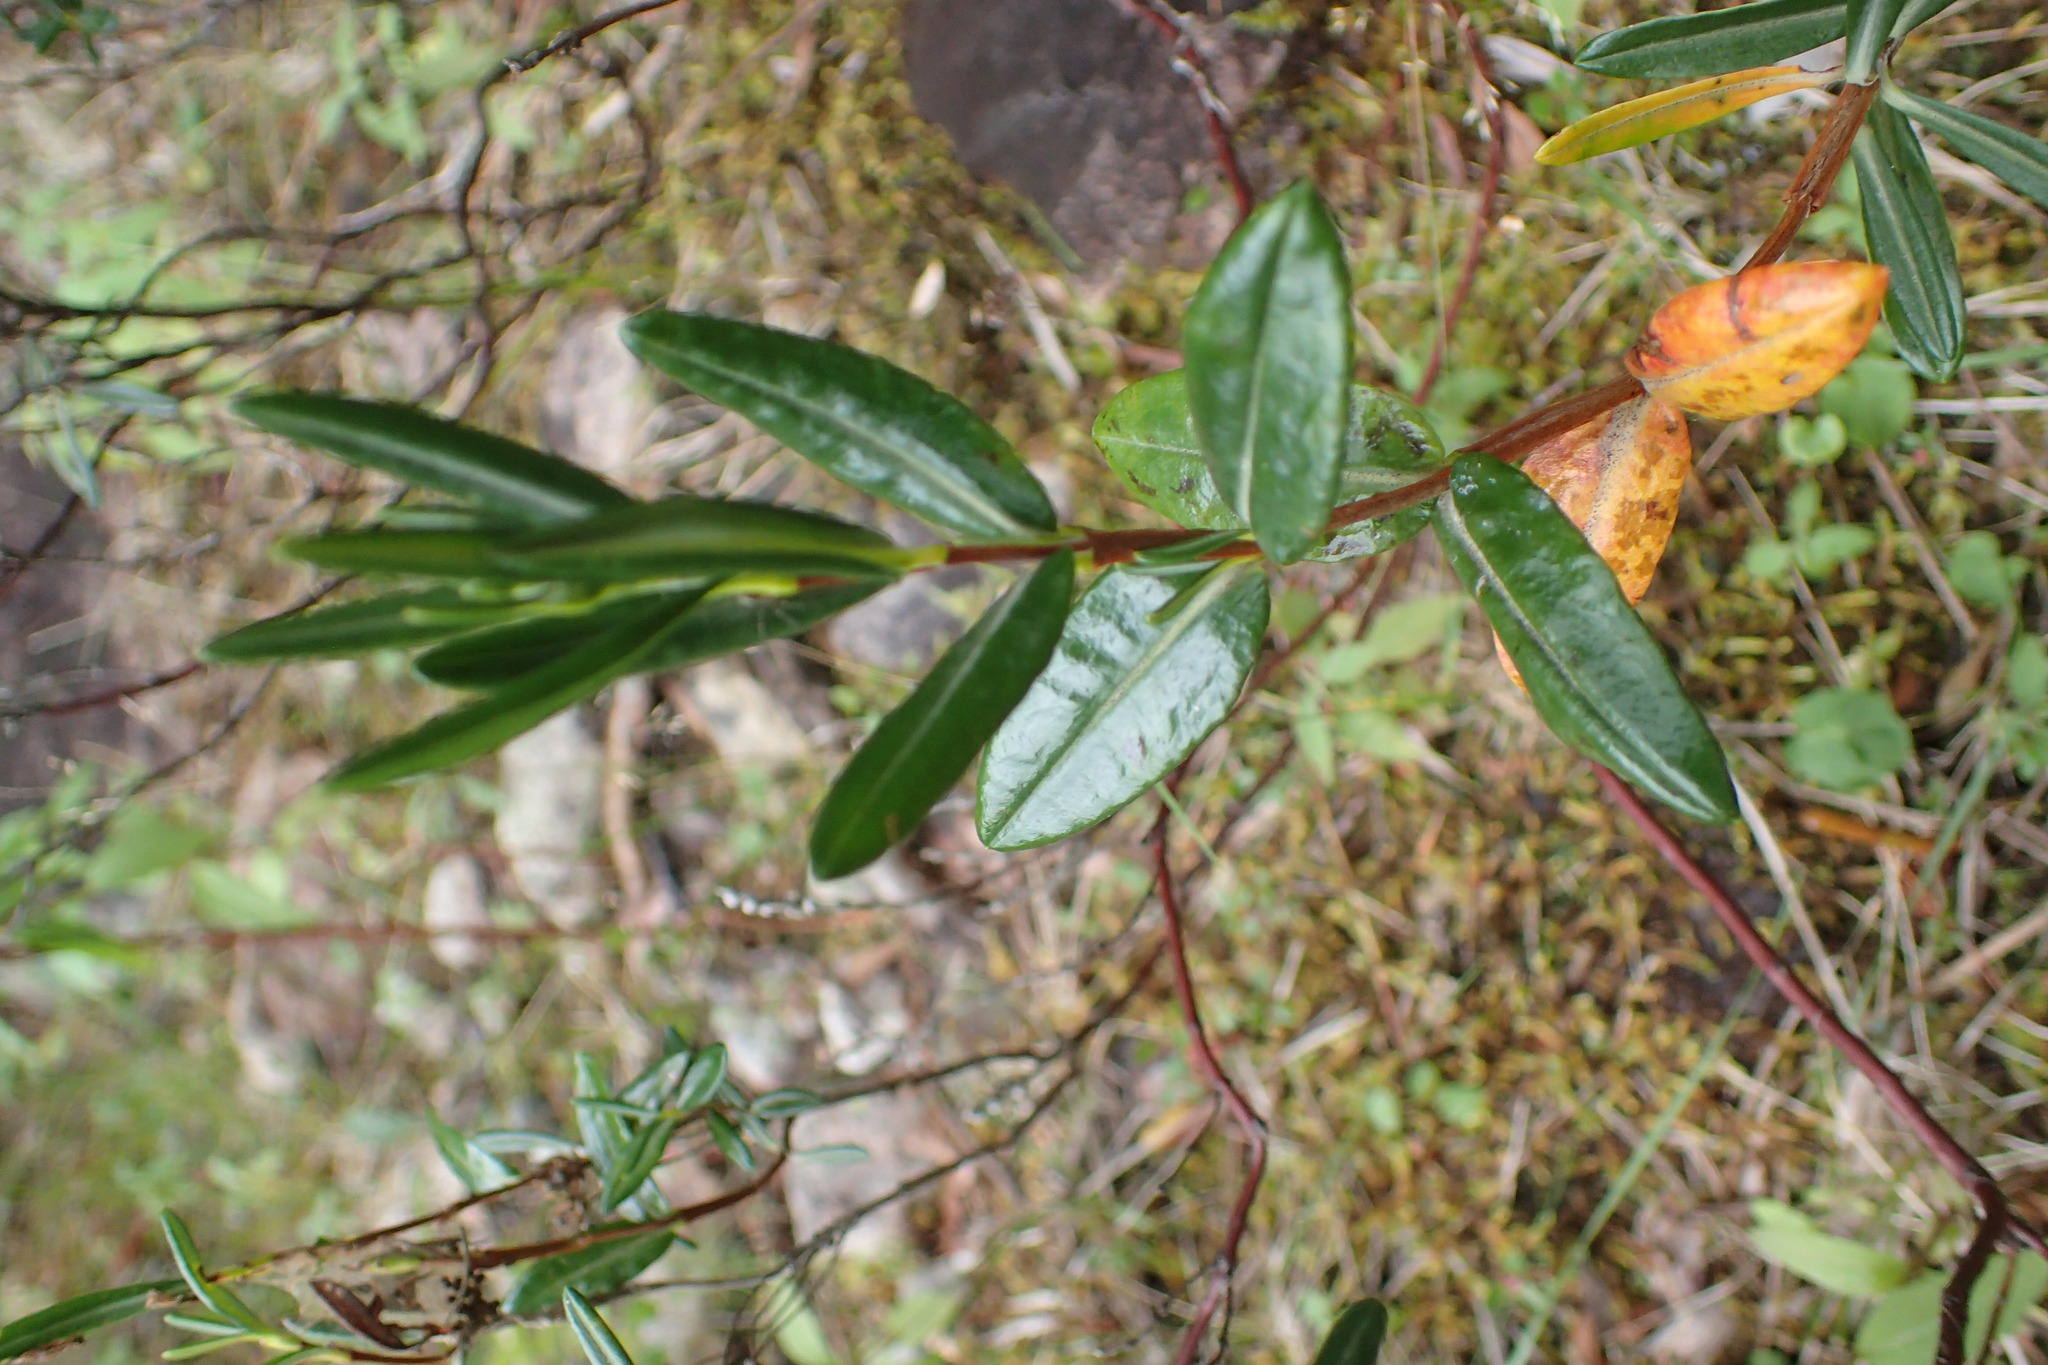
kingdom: Plantae
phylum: Tracheophyta
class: Magnoliopsida
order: Ericales
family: Ericaceae
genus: Kalmia
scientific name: Kalmia polifolia
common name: Bog-laurel
